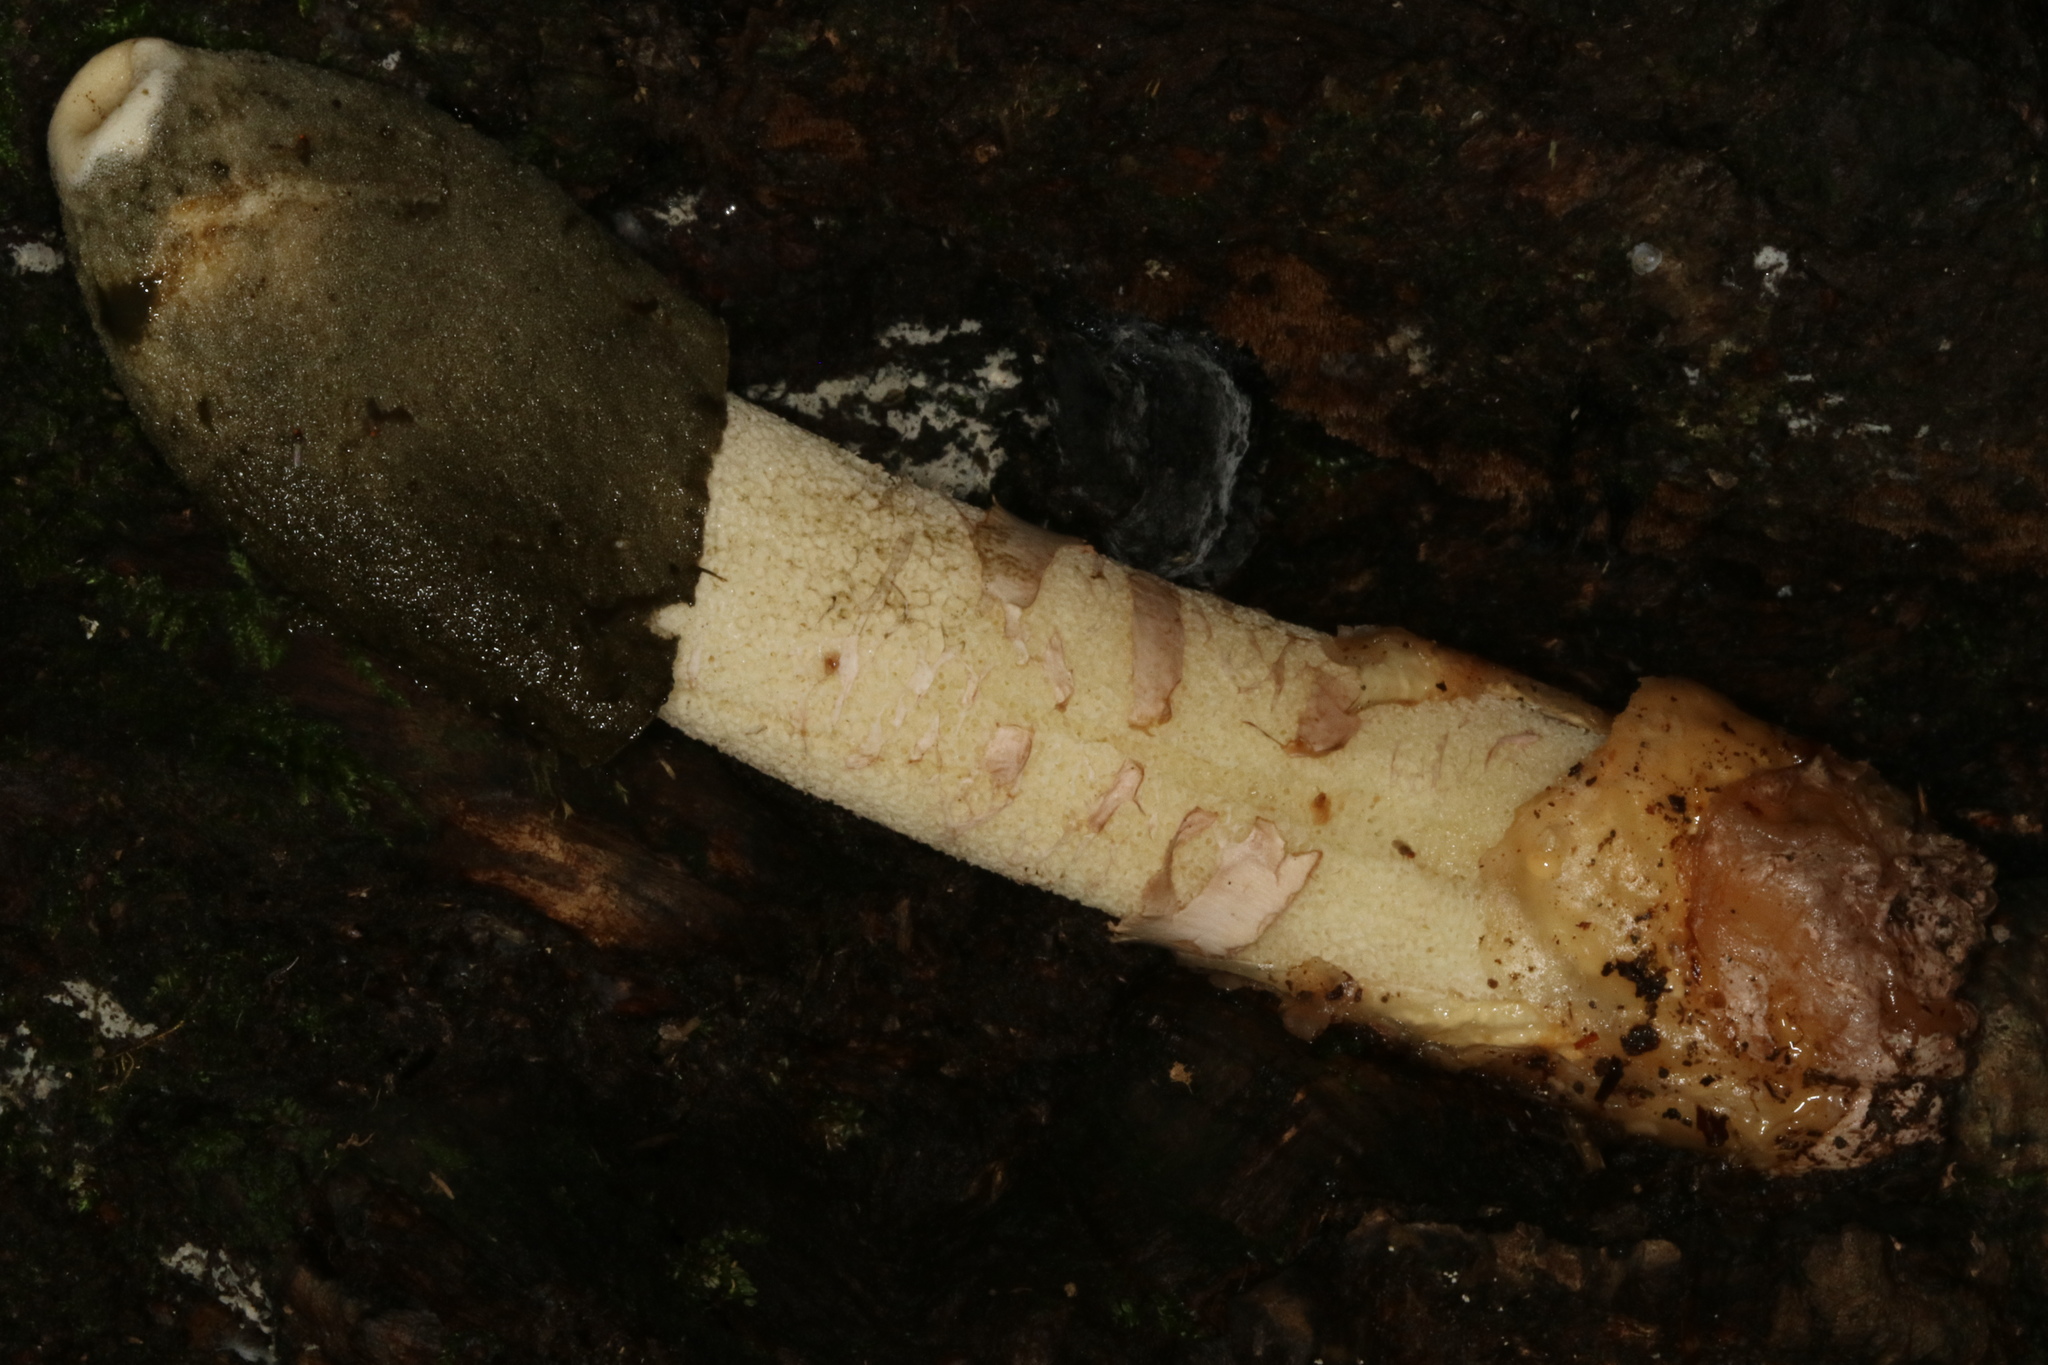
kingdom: Fungi
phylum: Basidiomycota
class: Agaricomycetes
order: Phallales
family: Phallaceae
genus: Phallus
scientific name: Phallus ravenelii
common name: Ravenel's stinkhorn
